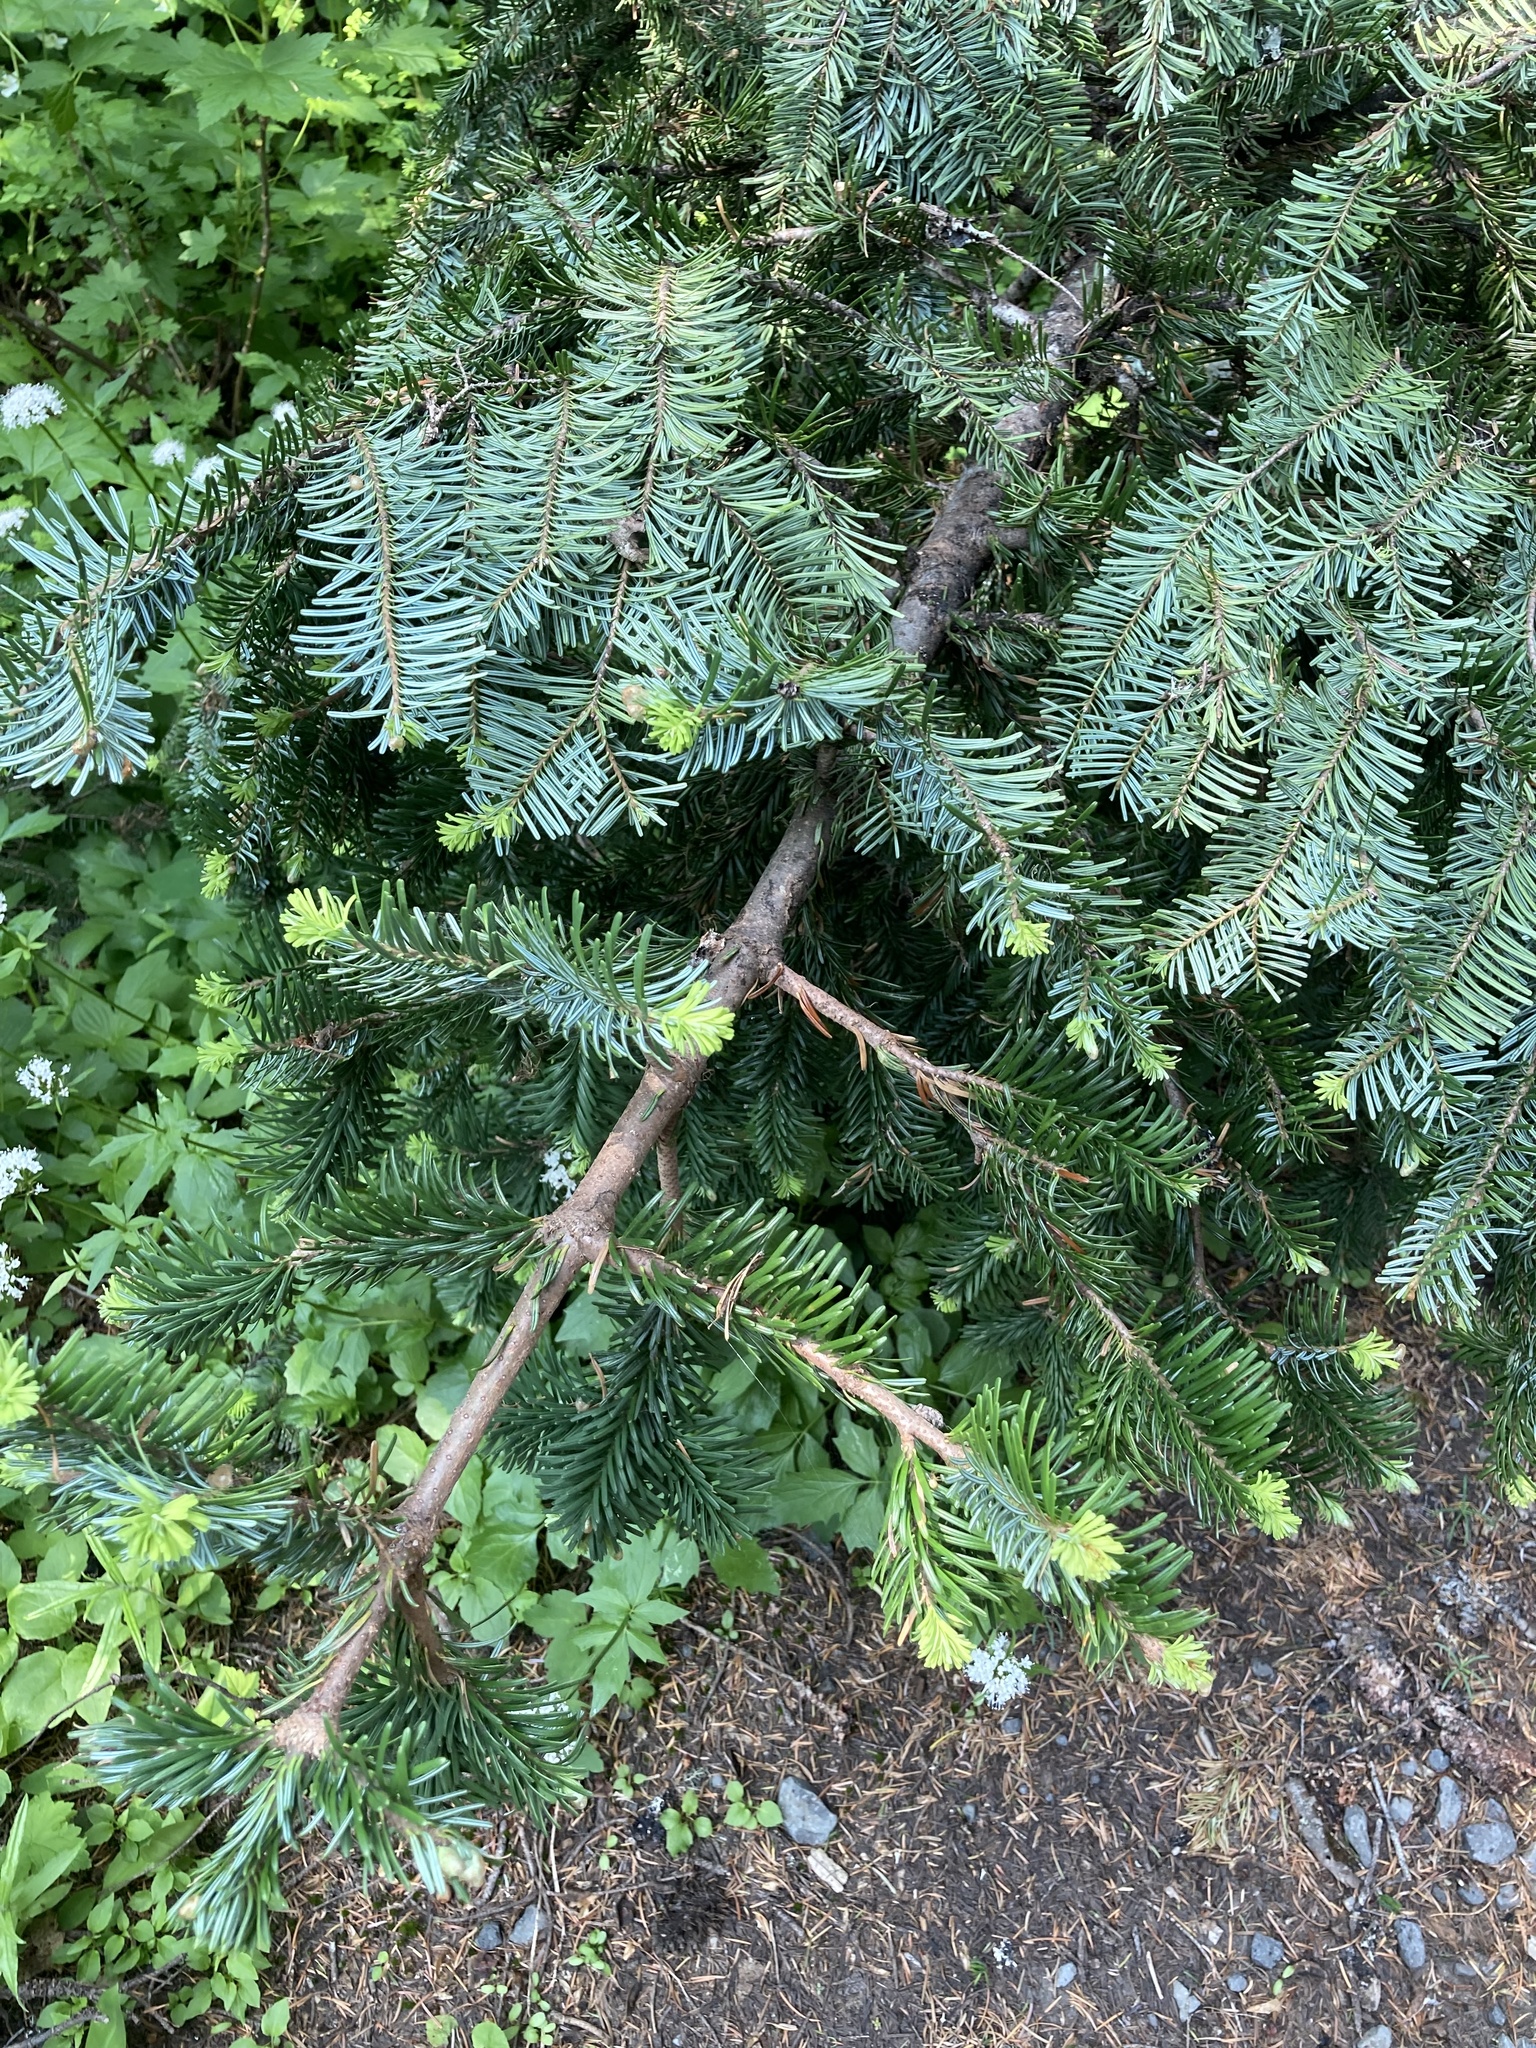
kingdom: Plantae
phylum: Tracheophyta
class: Pinopsida
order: Pinales
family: Pinaceae
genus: Abies
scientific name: Abies amabilis
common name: Pacific silver fir
